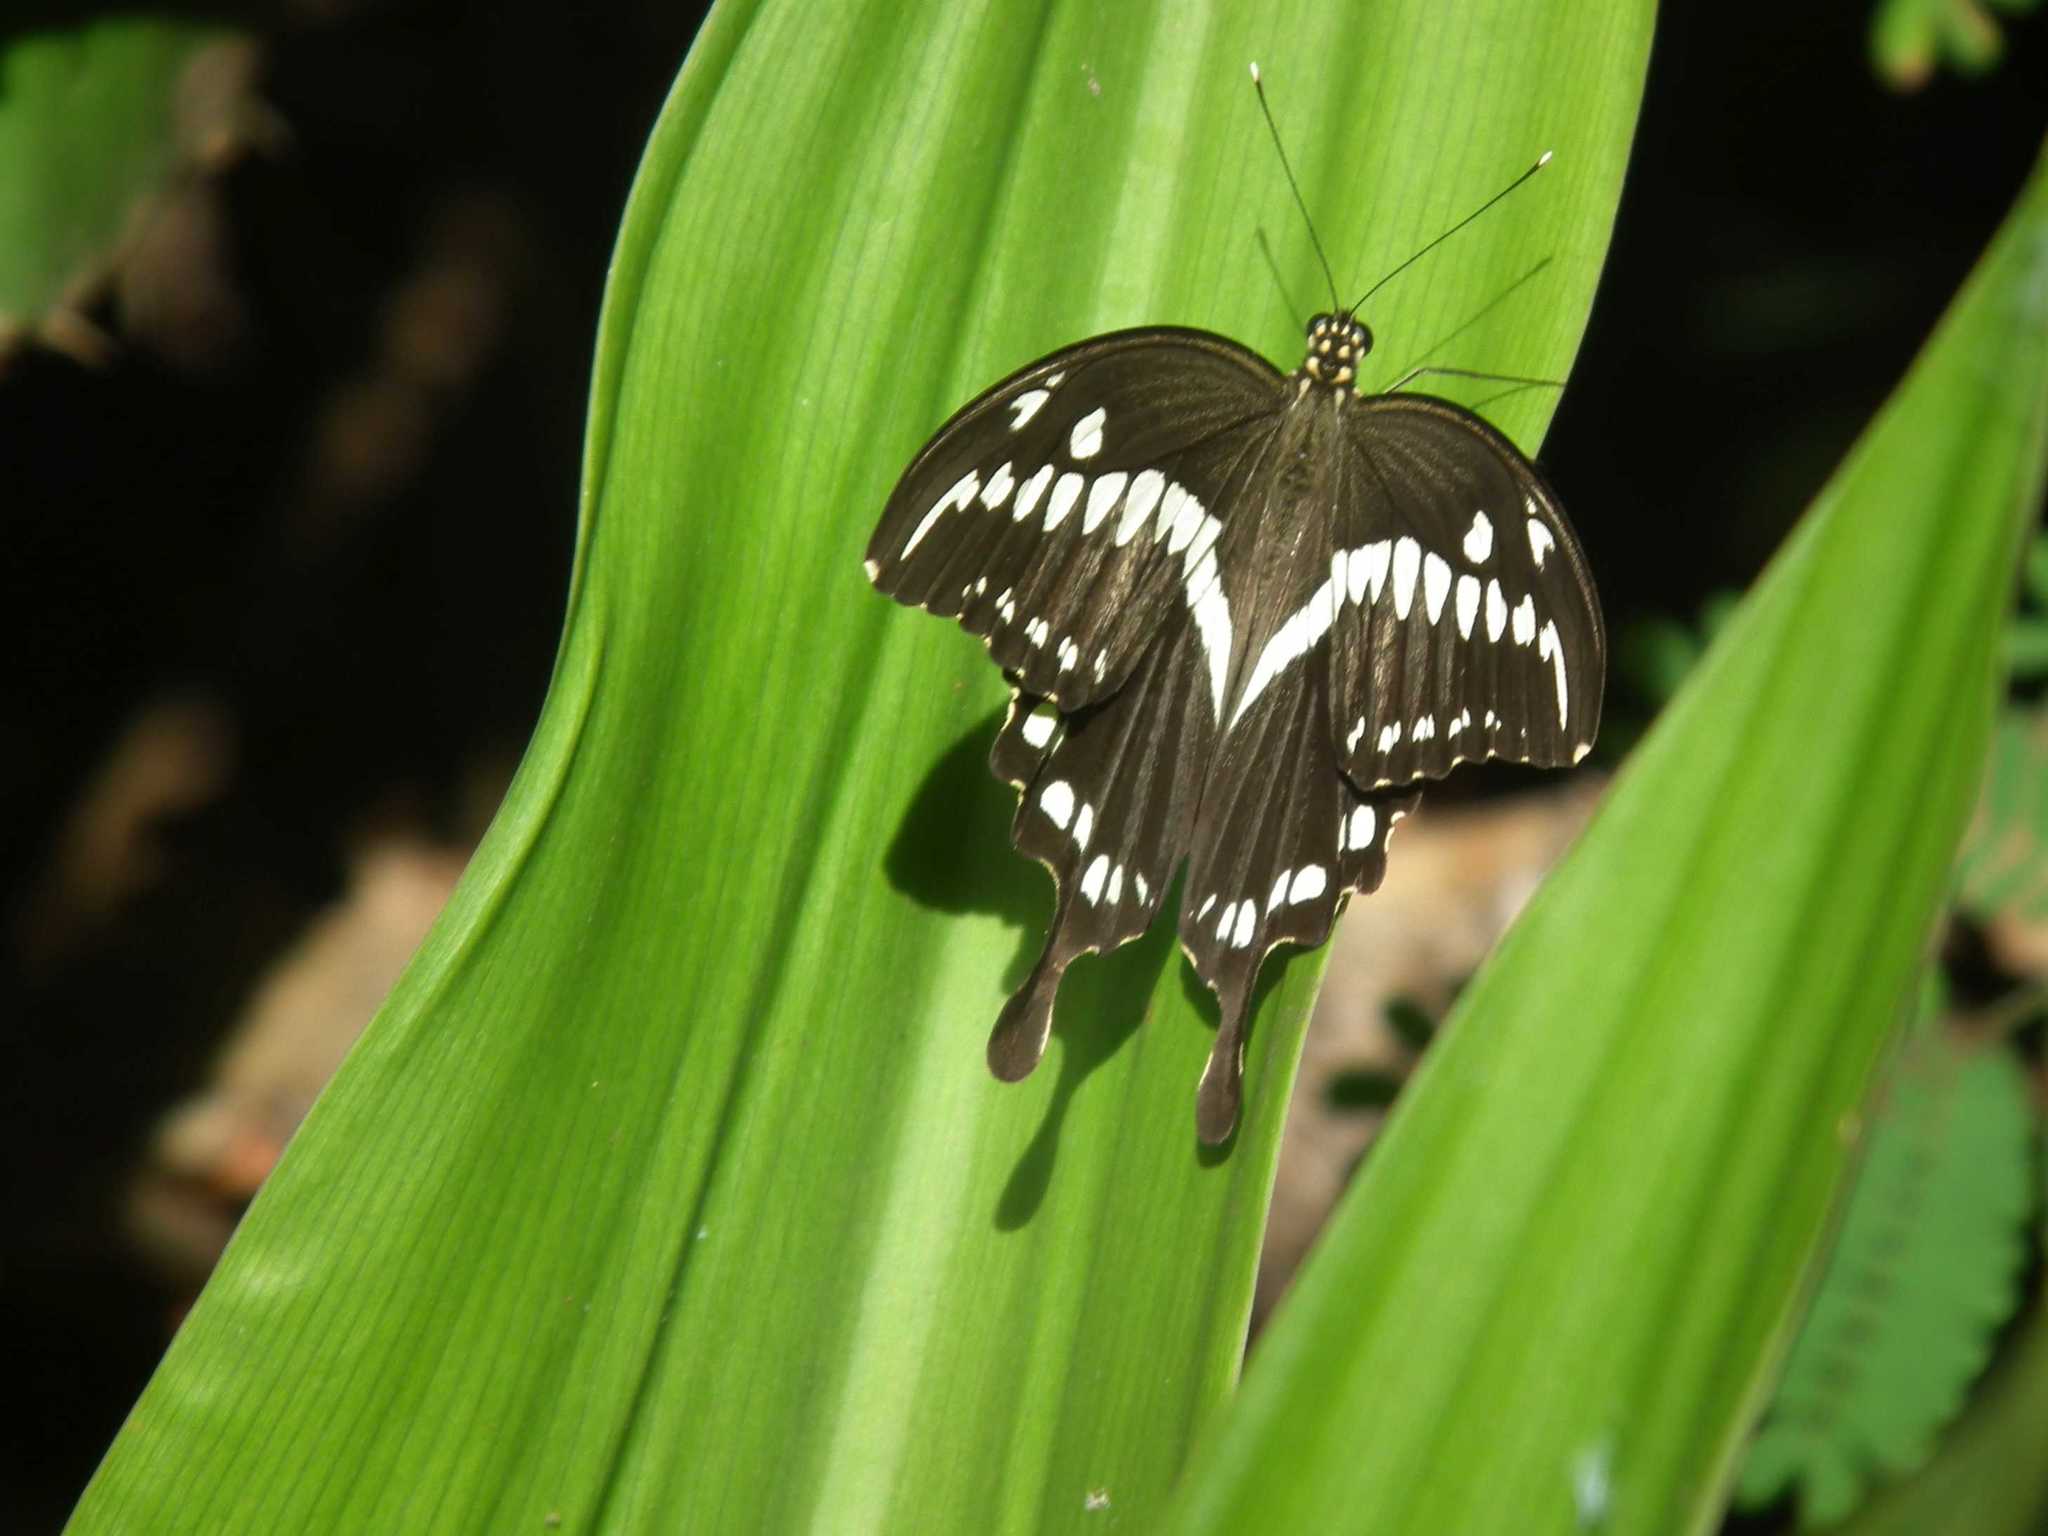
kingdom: Animalia
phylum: Arthropoda
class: Insecta
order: Lepidoptera
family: Papilionidae
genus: Papilio
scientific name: Papilio constantinus
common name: Constantine's swallowtail
